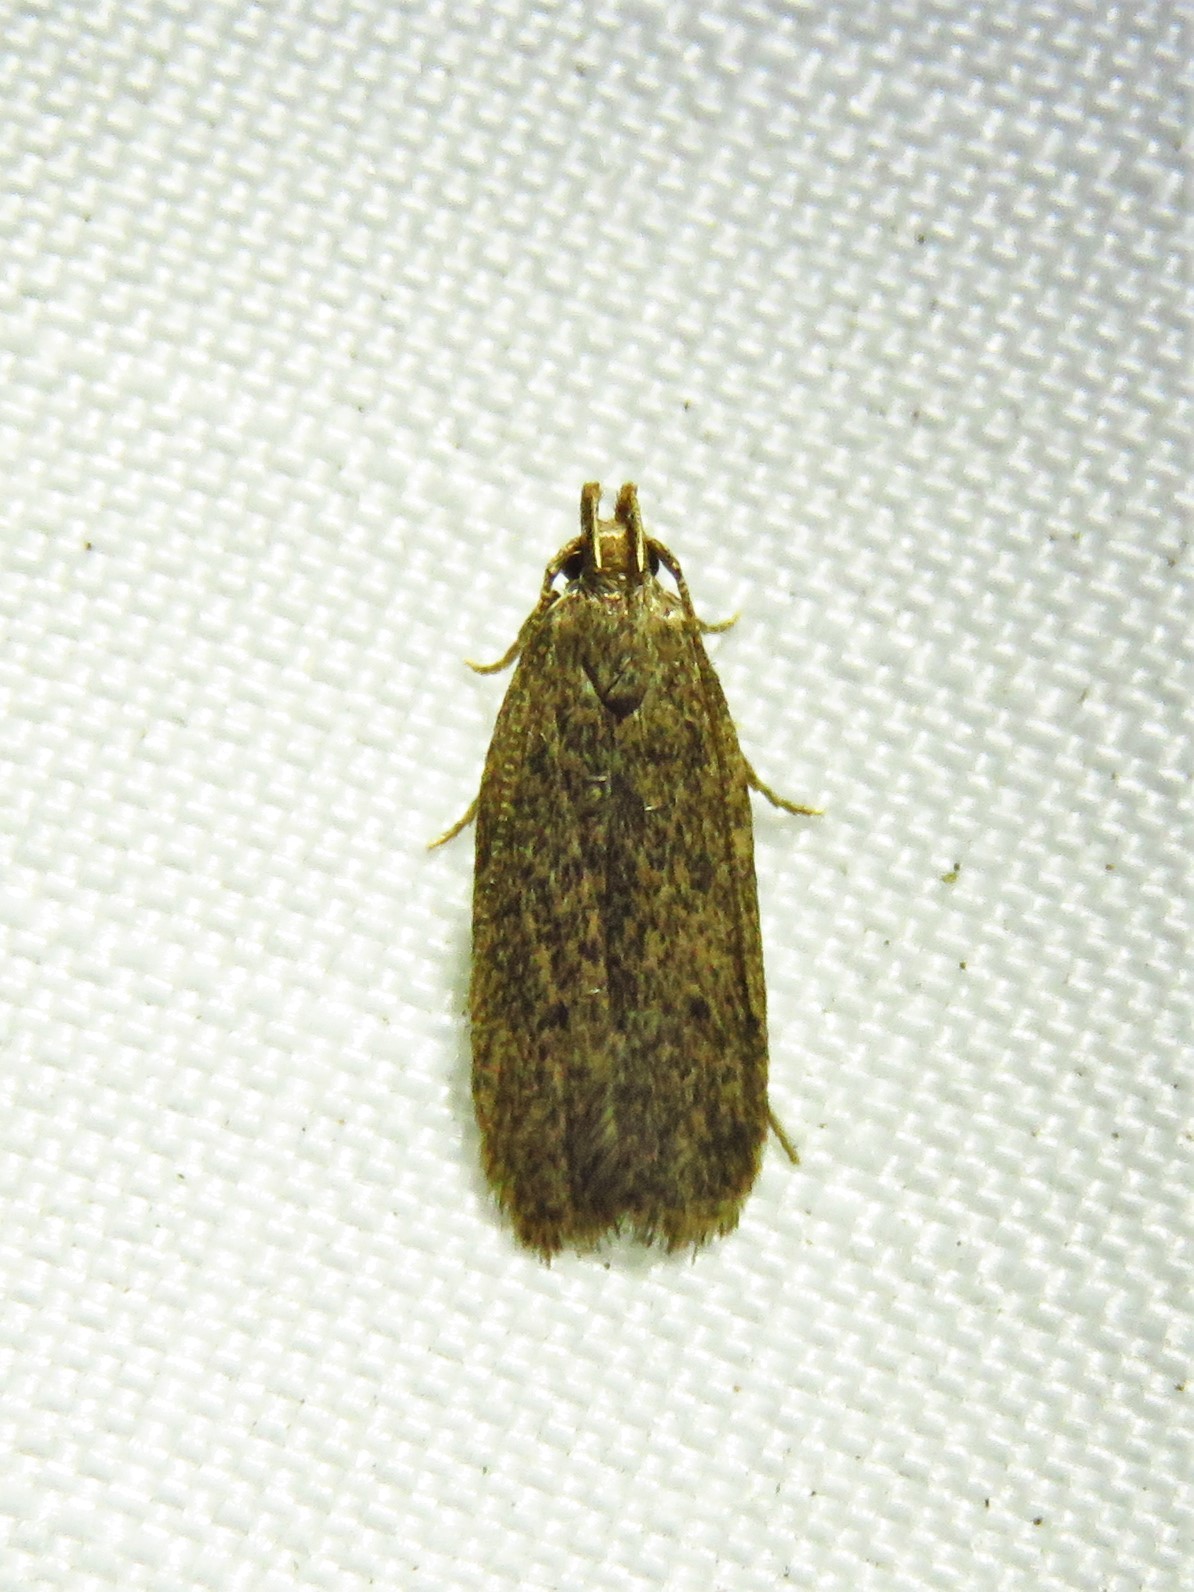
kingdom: Animalia
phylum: Arthropoda
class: Insecta
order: Lepidoptera
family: Autostichidae
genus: Glyphidocera
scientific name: Glyphidocera juniperella
